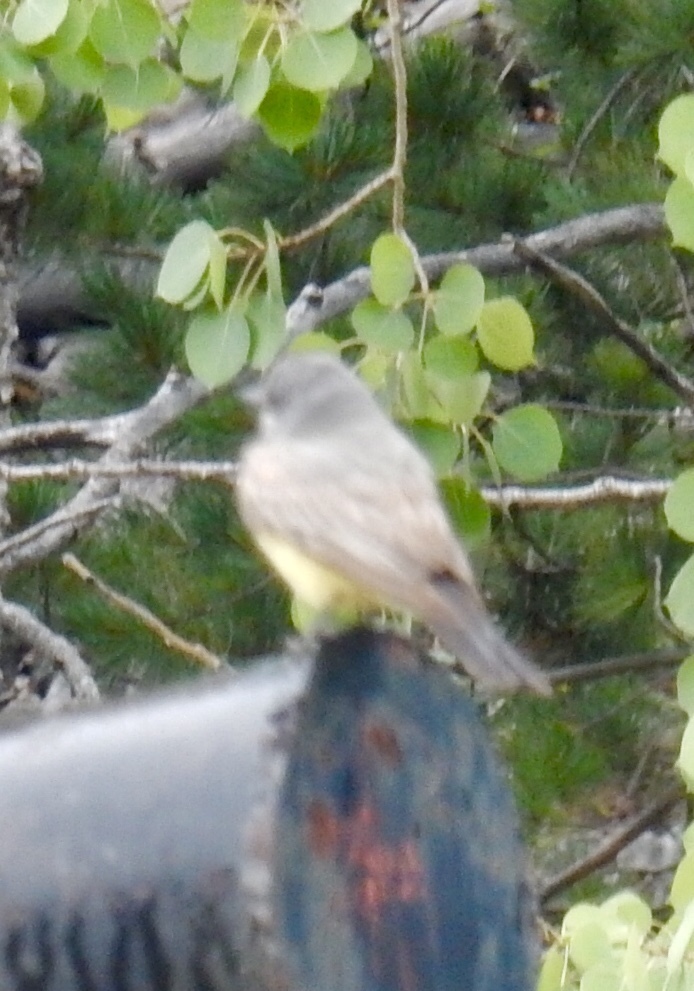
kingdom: Animalia
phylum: Chordata
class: Aves
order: Passeriformes
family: Tyrannidae
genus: Tyrannus
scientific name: Tyrannus vociferans
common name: Cassin's kingbird
